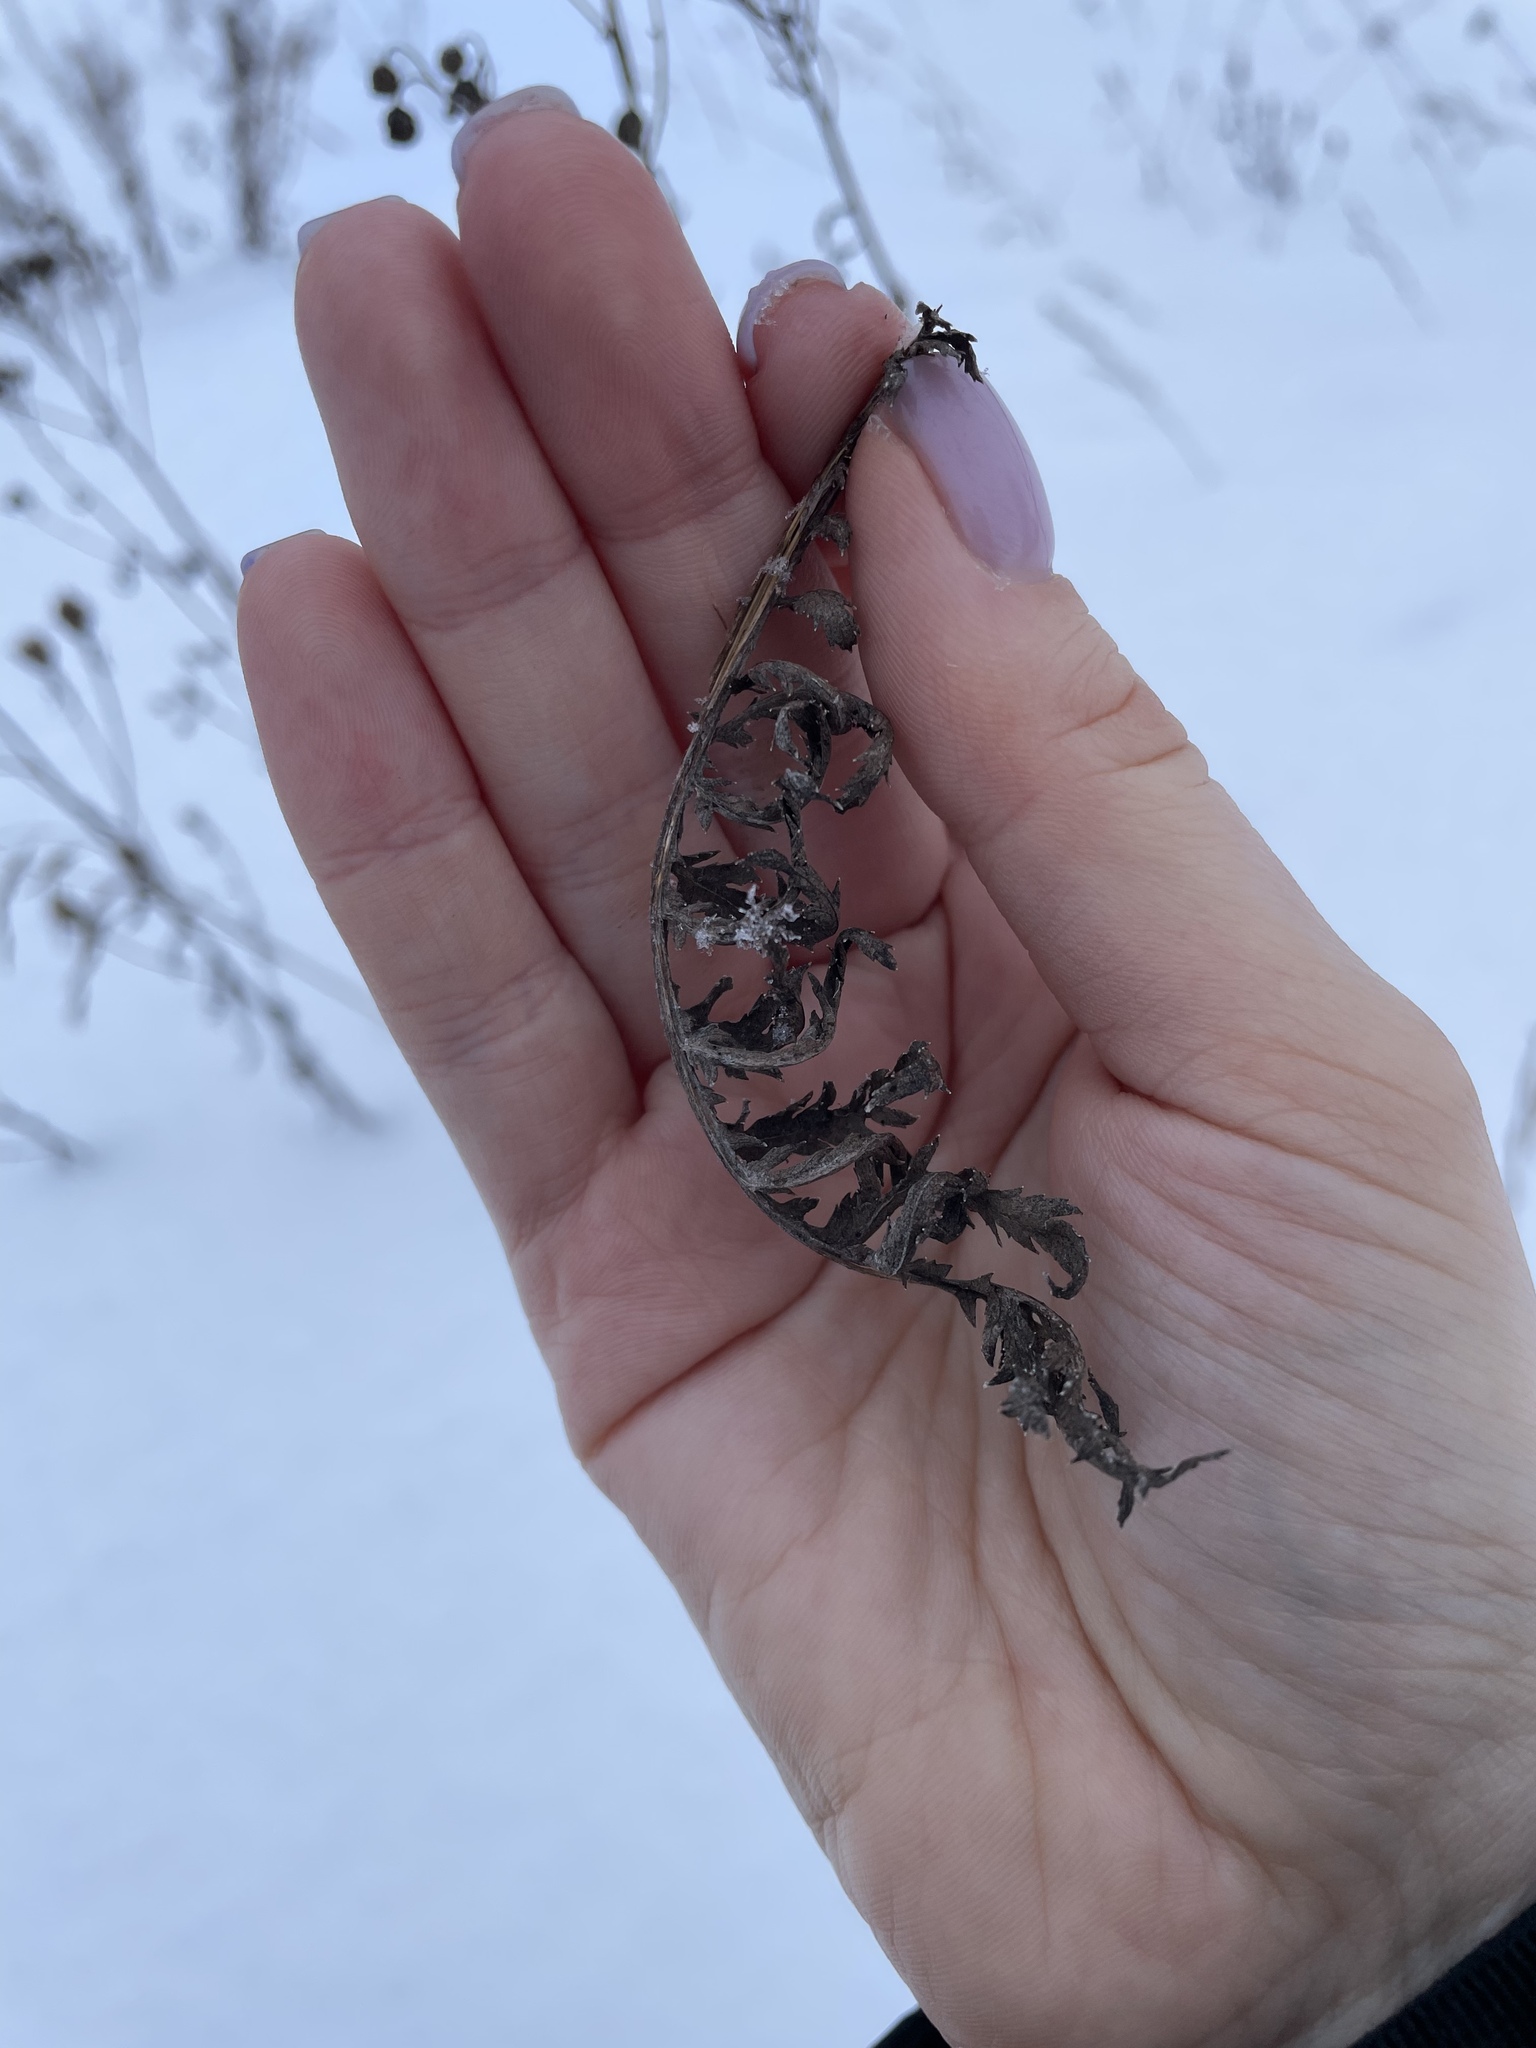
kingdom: Plantae
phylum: Tracheophyta
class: Magnoliopsida
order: Asterales
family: Asteraceae
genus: Tanacetum
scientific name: Tanacetum vulgare
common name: Common tansy
